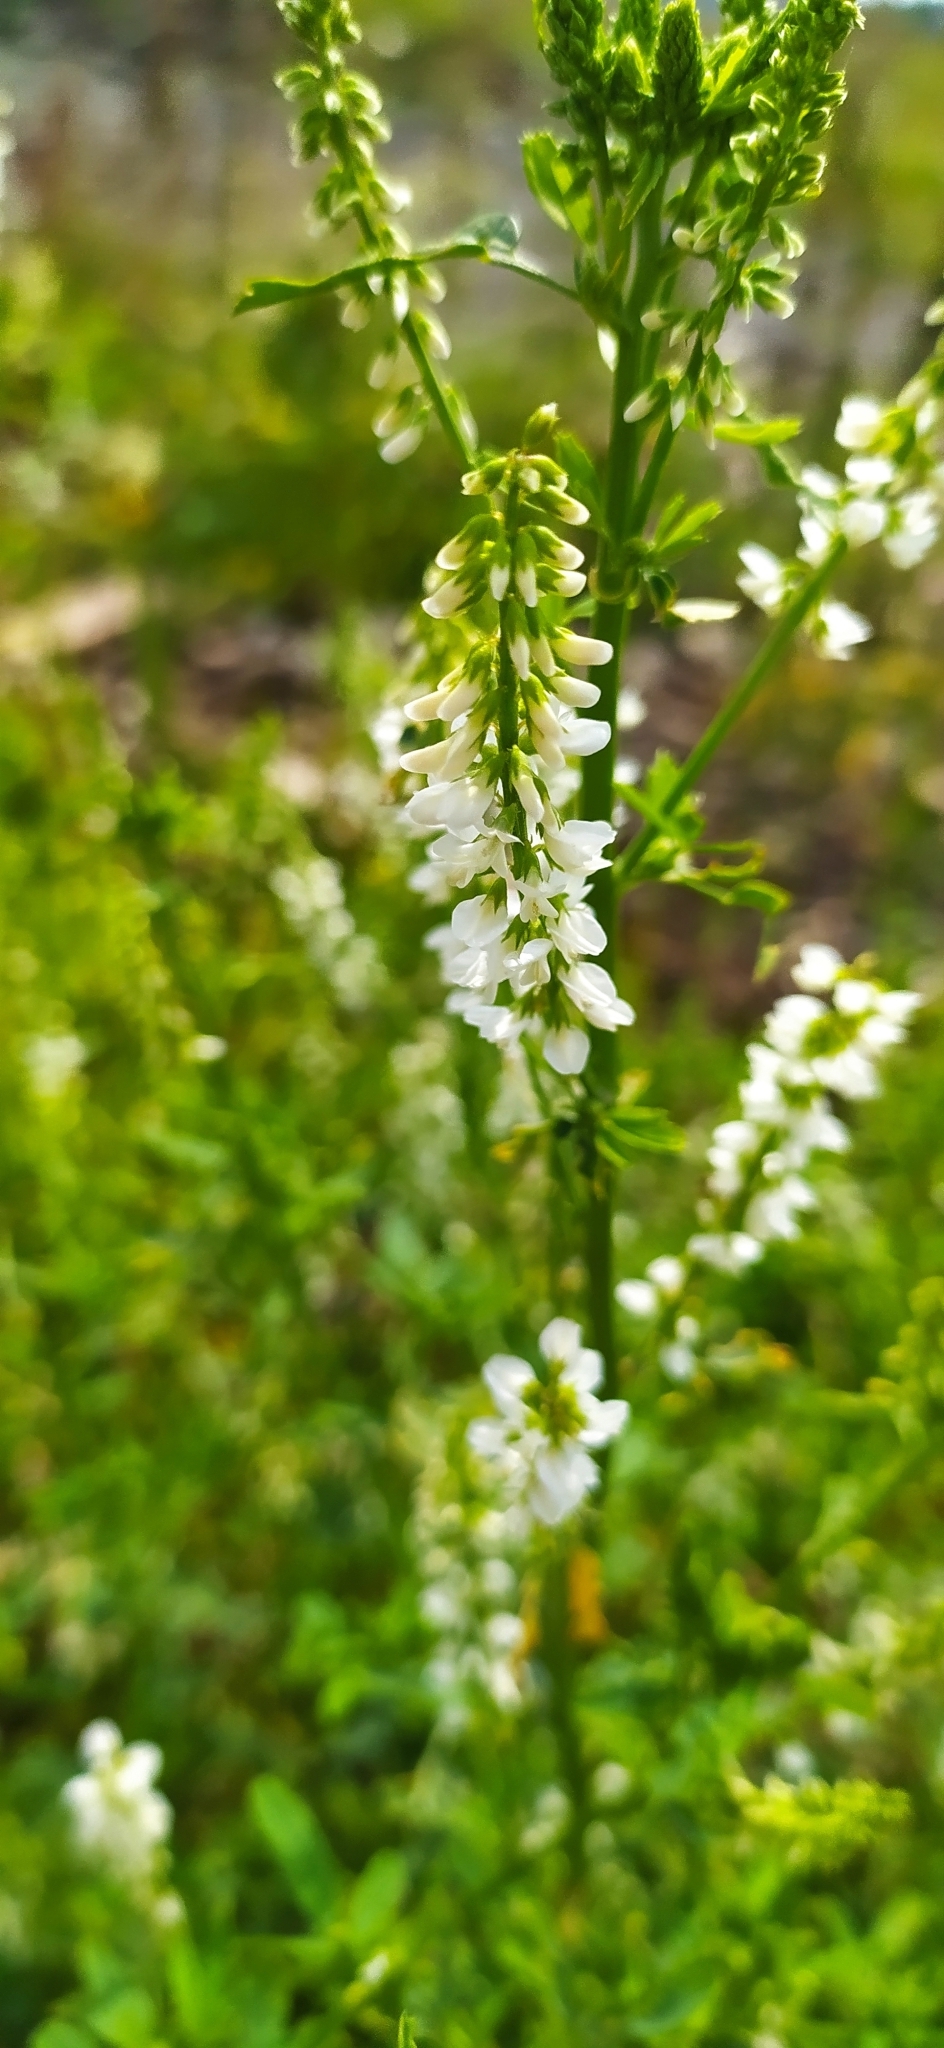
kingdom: Plantae
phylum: Tracheophyta
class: Magnoliopsida
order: Fabales
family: Fabaceae
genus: Melilotus
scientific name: Melilotus albus
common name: White melilot
